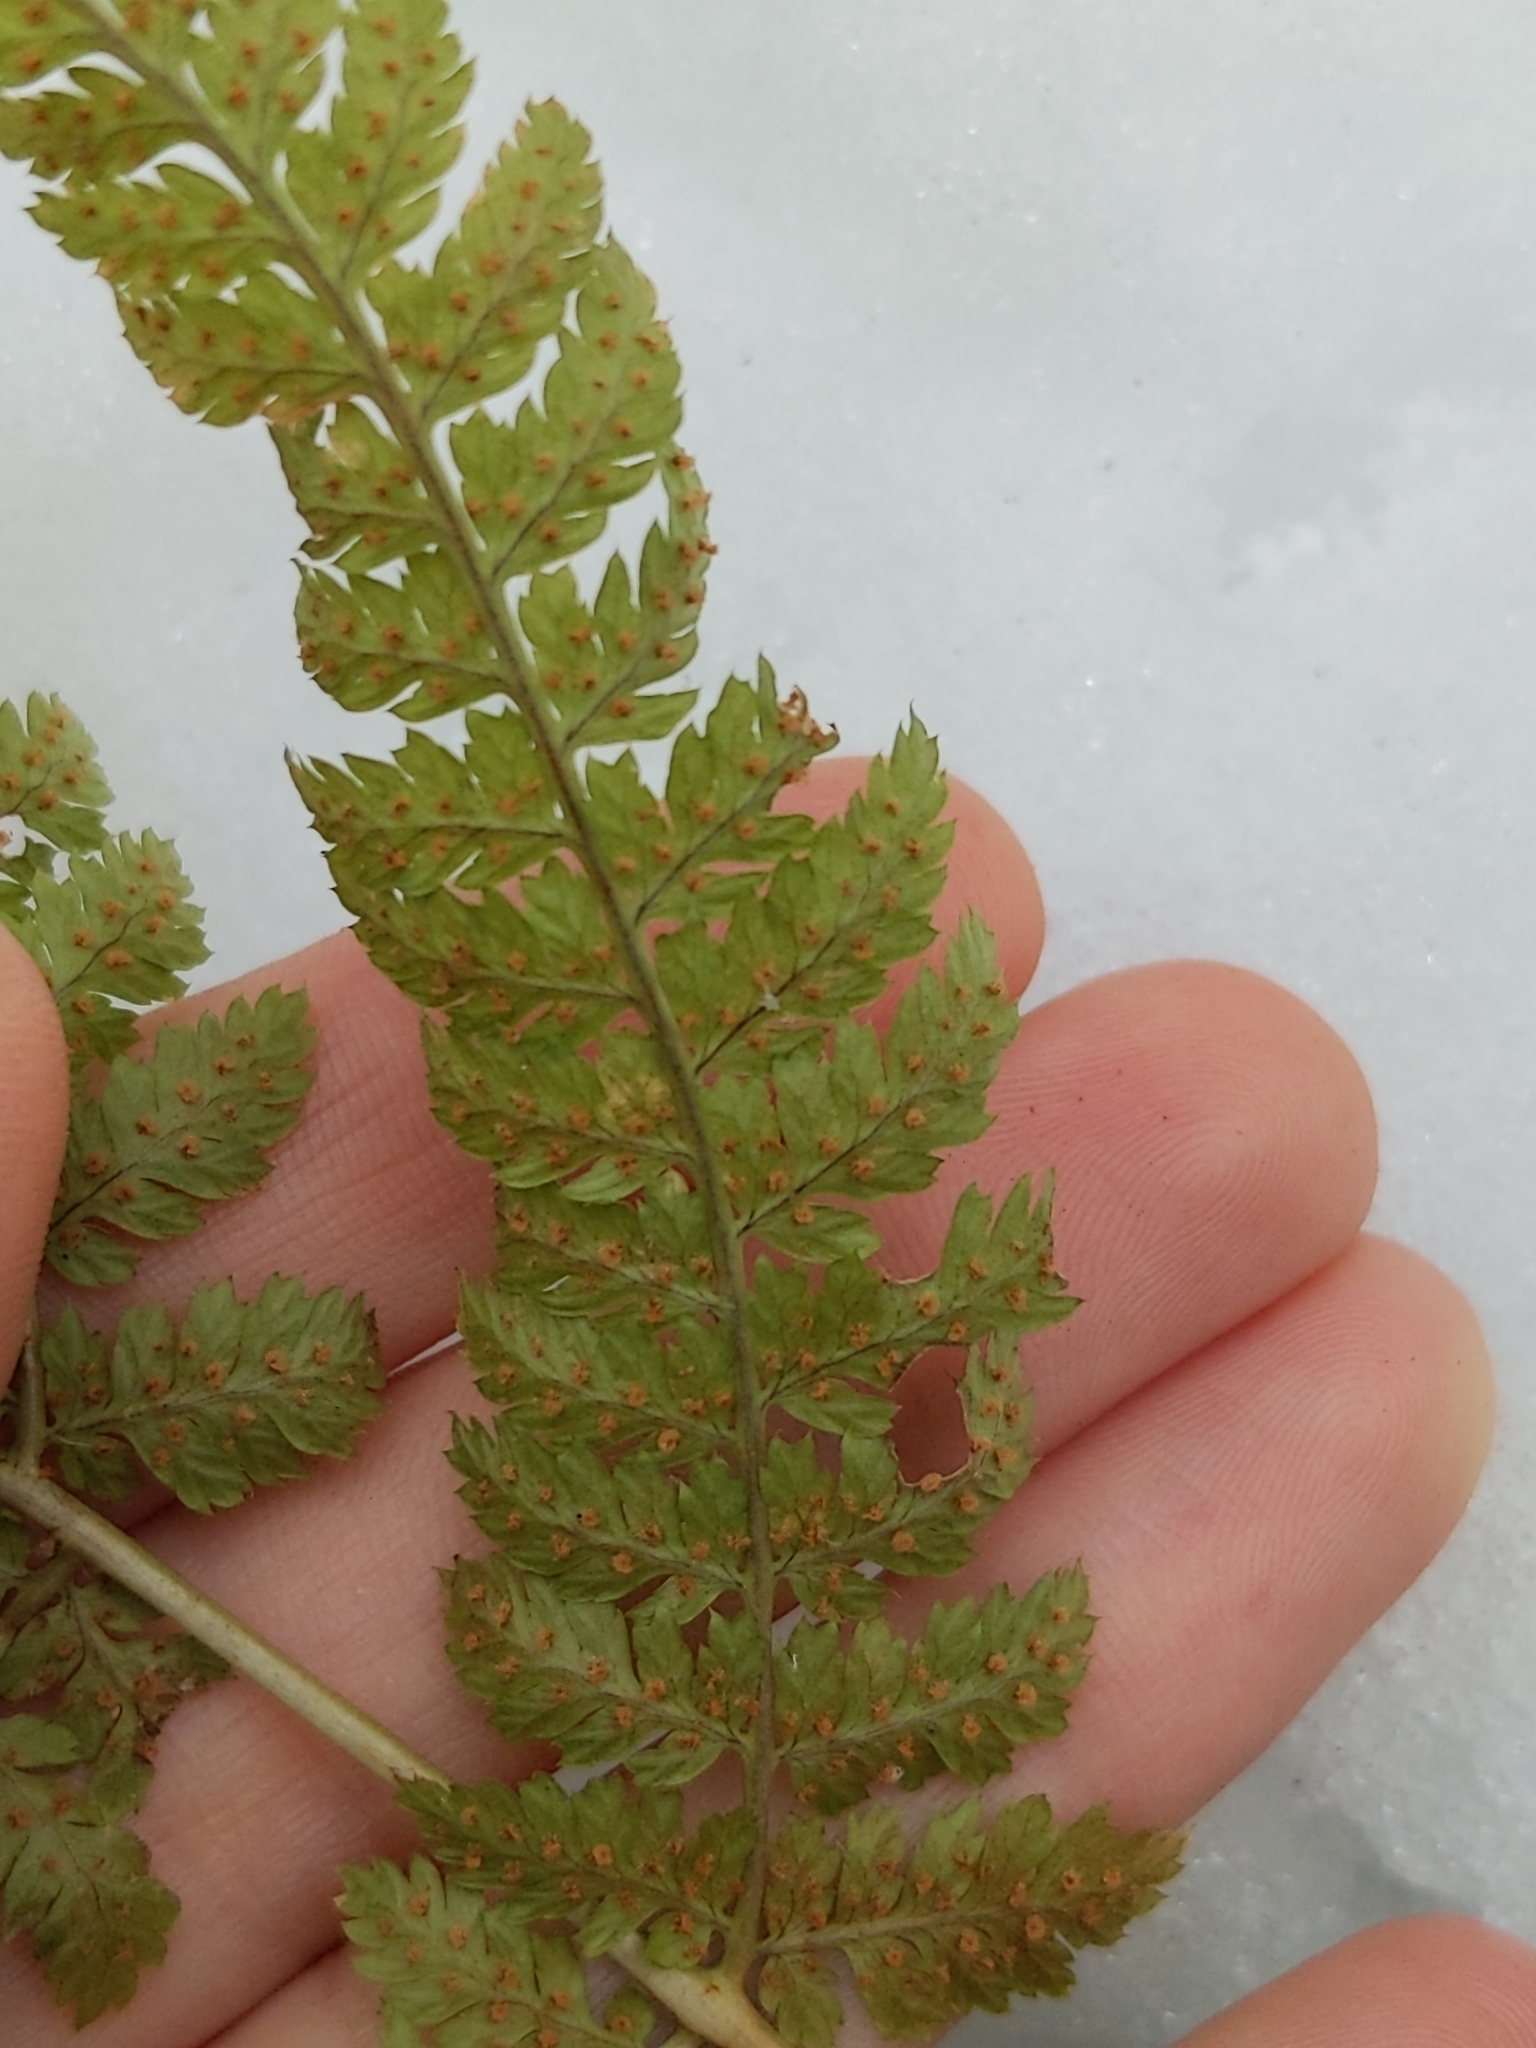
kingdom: Plantae
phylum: Tracheophyta
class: Polypodiopsida
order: Polypodiales
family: Dryopteridaceae
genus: Dryopteris
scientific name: Dryopteris intermedia
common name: Evergreen wood fern
